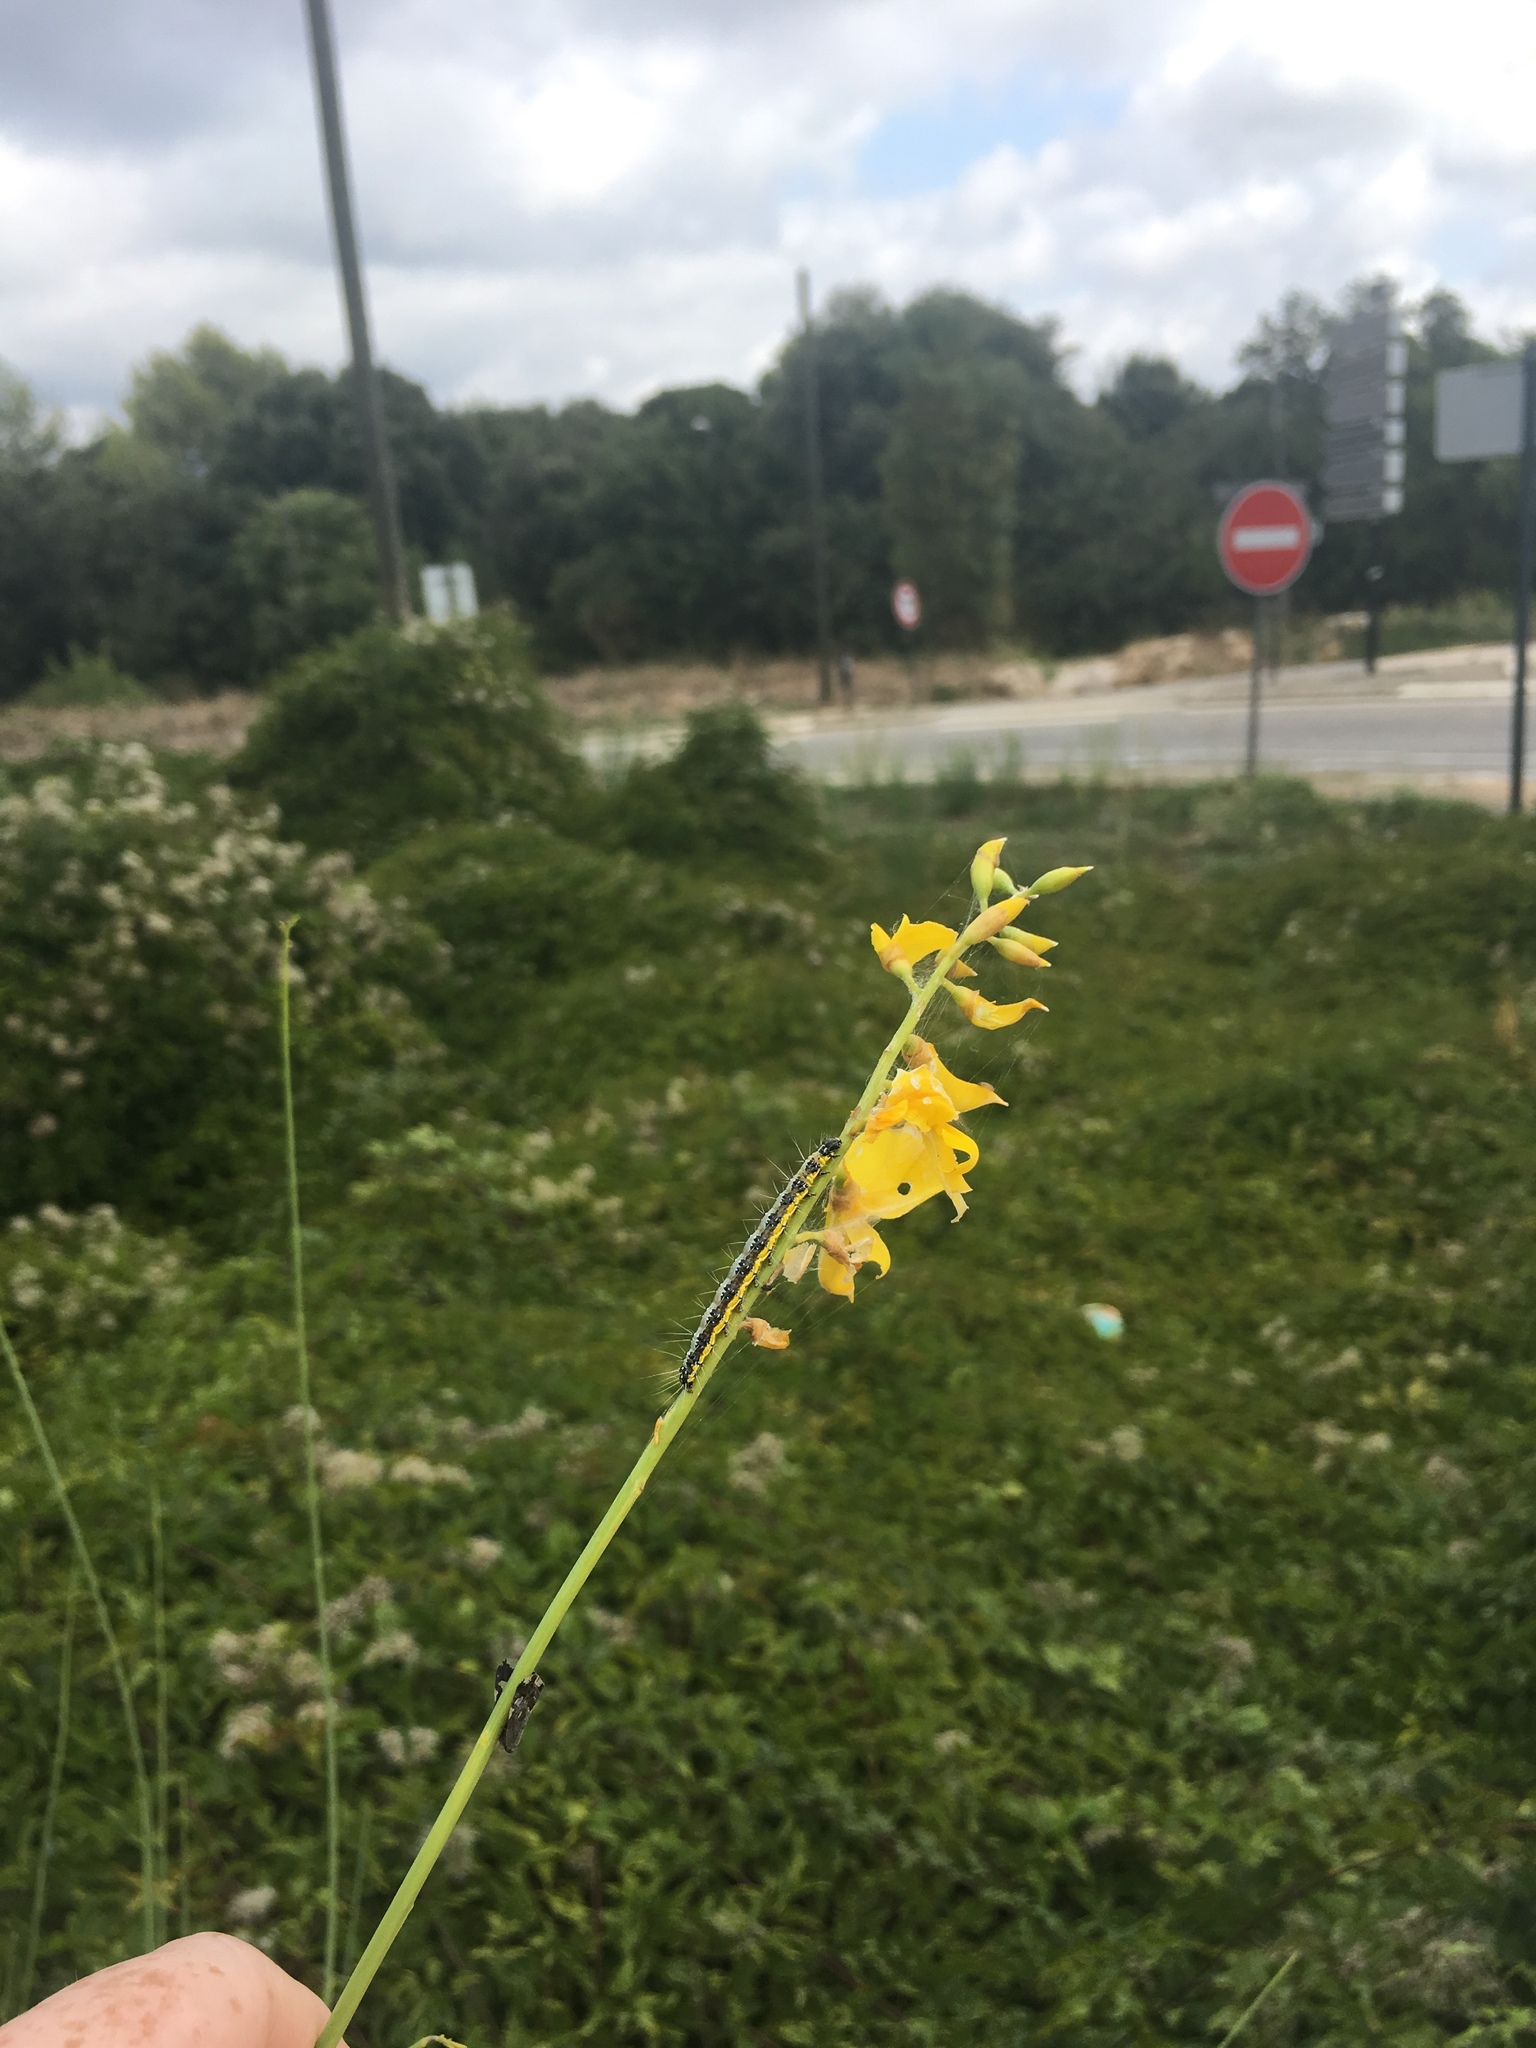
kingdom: Plantae
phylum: Tracheophyta
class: Magnoliopsida
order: Fabales
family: Fabaceae
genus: Spartium
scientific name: Spartium junceum
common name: Spanish broom
